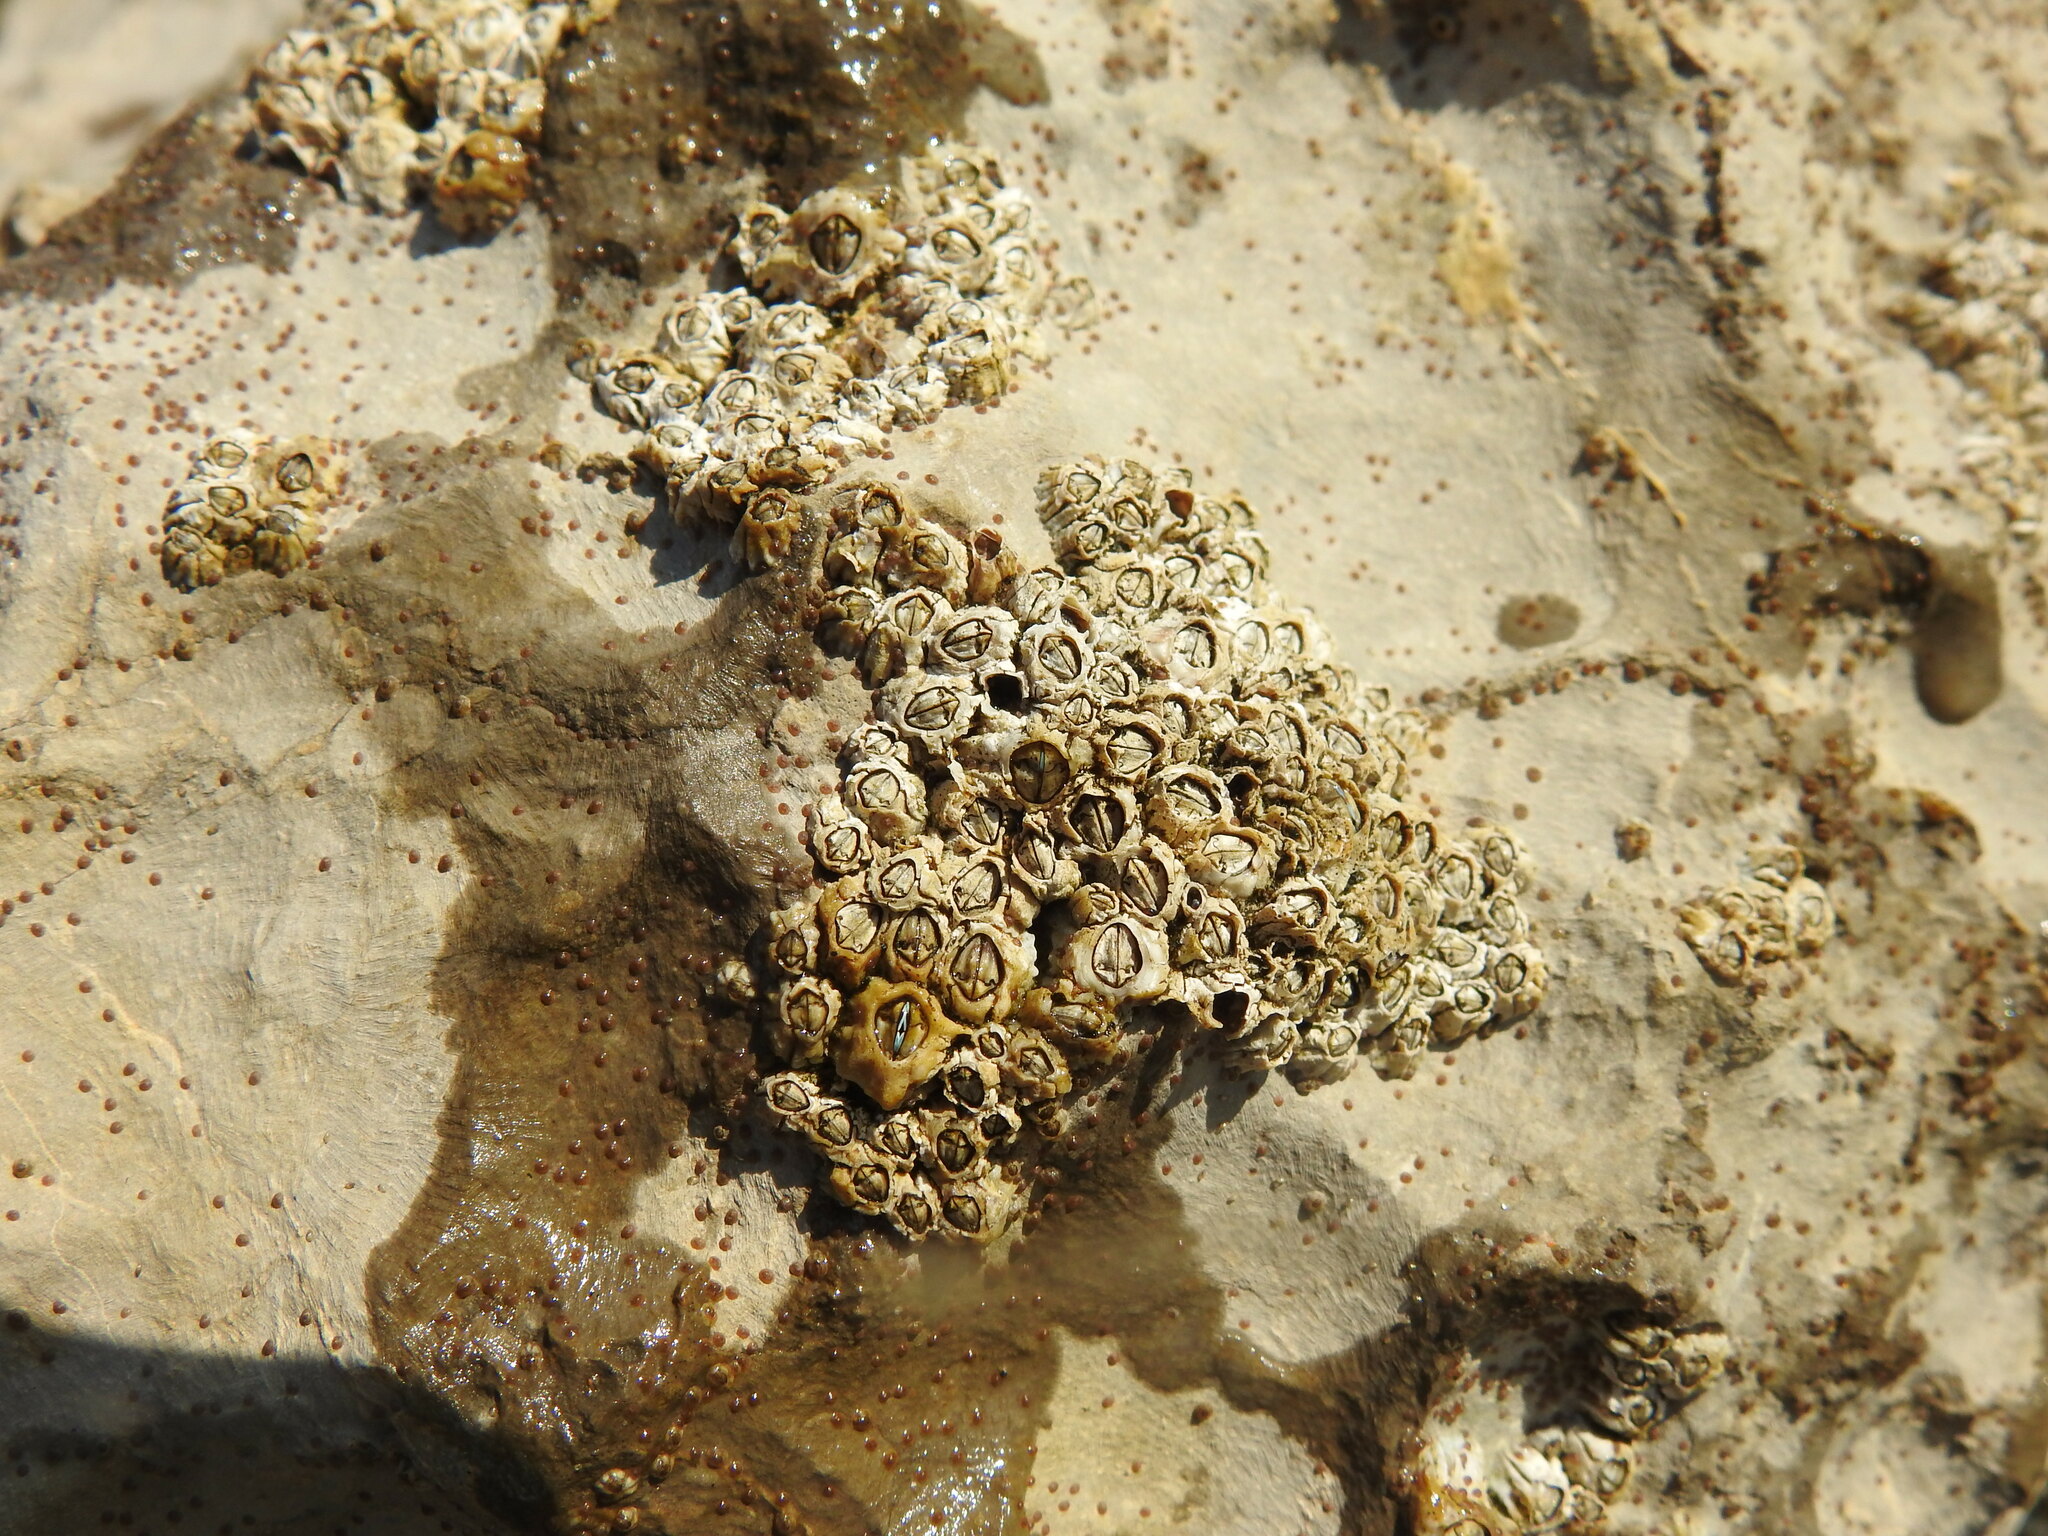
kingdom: Animalia
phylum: Arthropoda
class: Maxillopoda
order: Sessilia
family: Chthamalidae
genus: Chthamalus
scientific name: Chthamalus montagui
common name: Montagu's stellate barnacle
